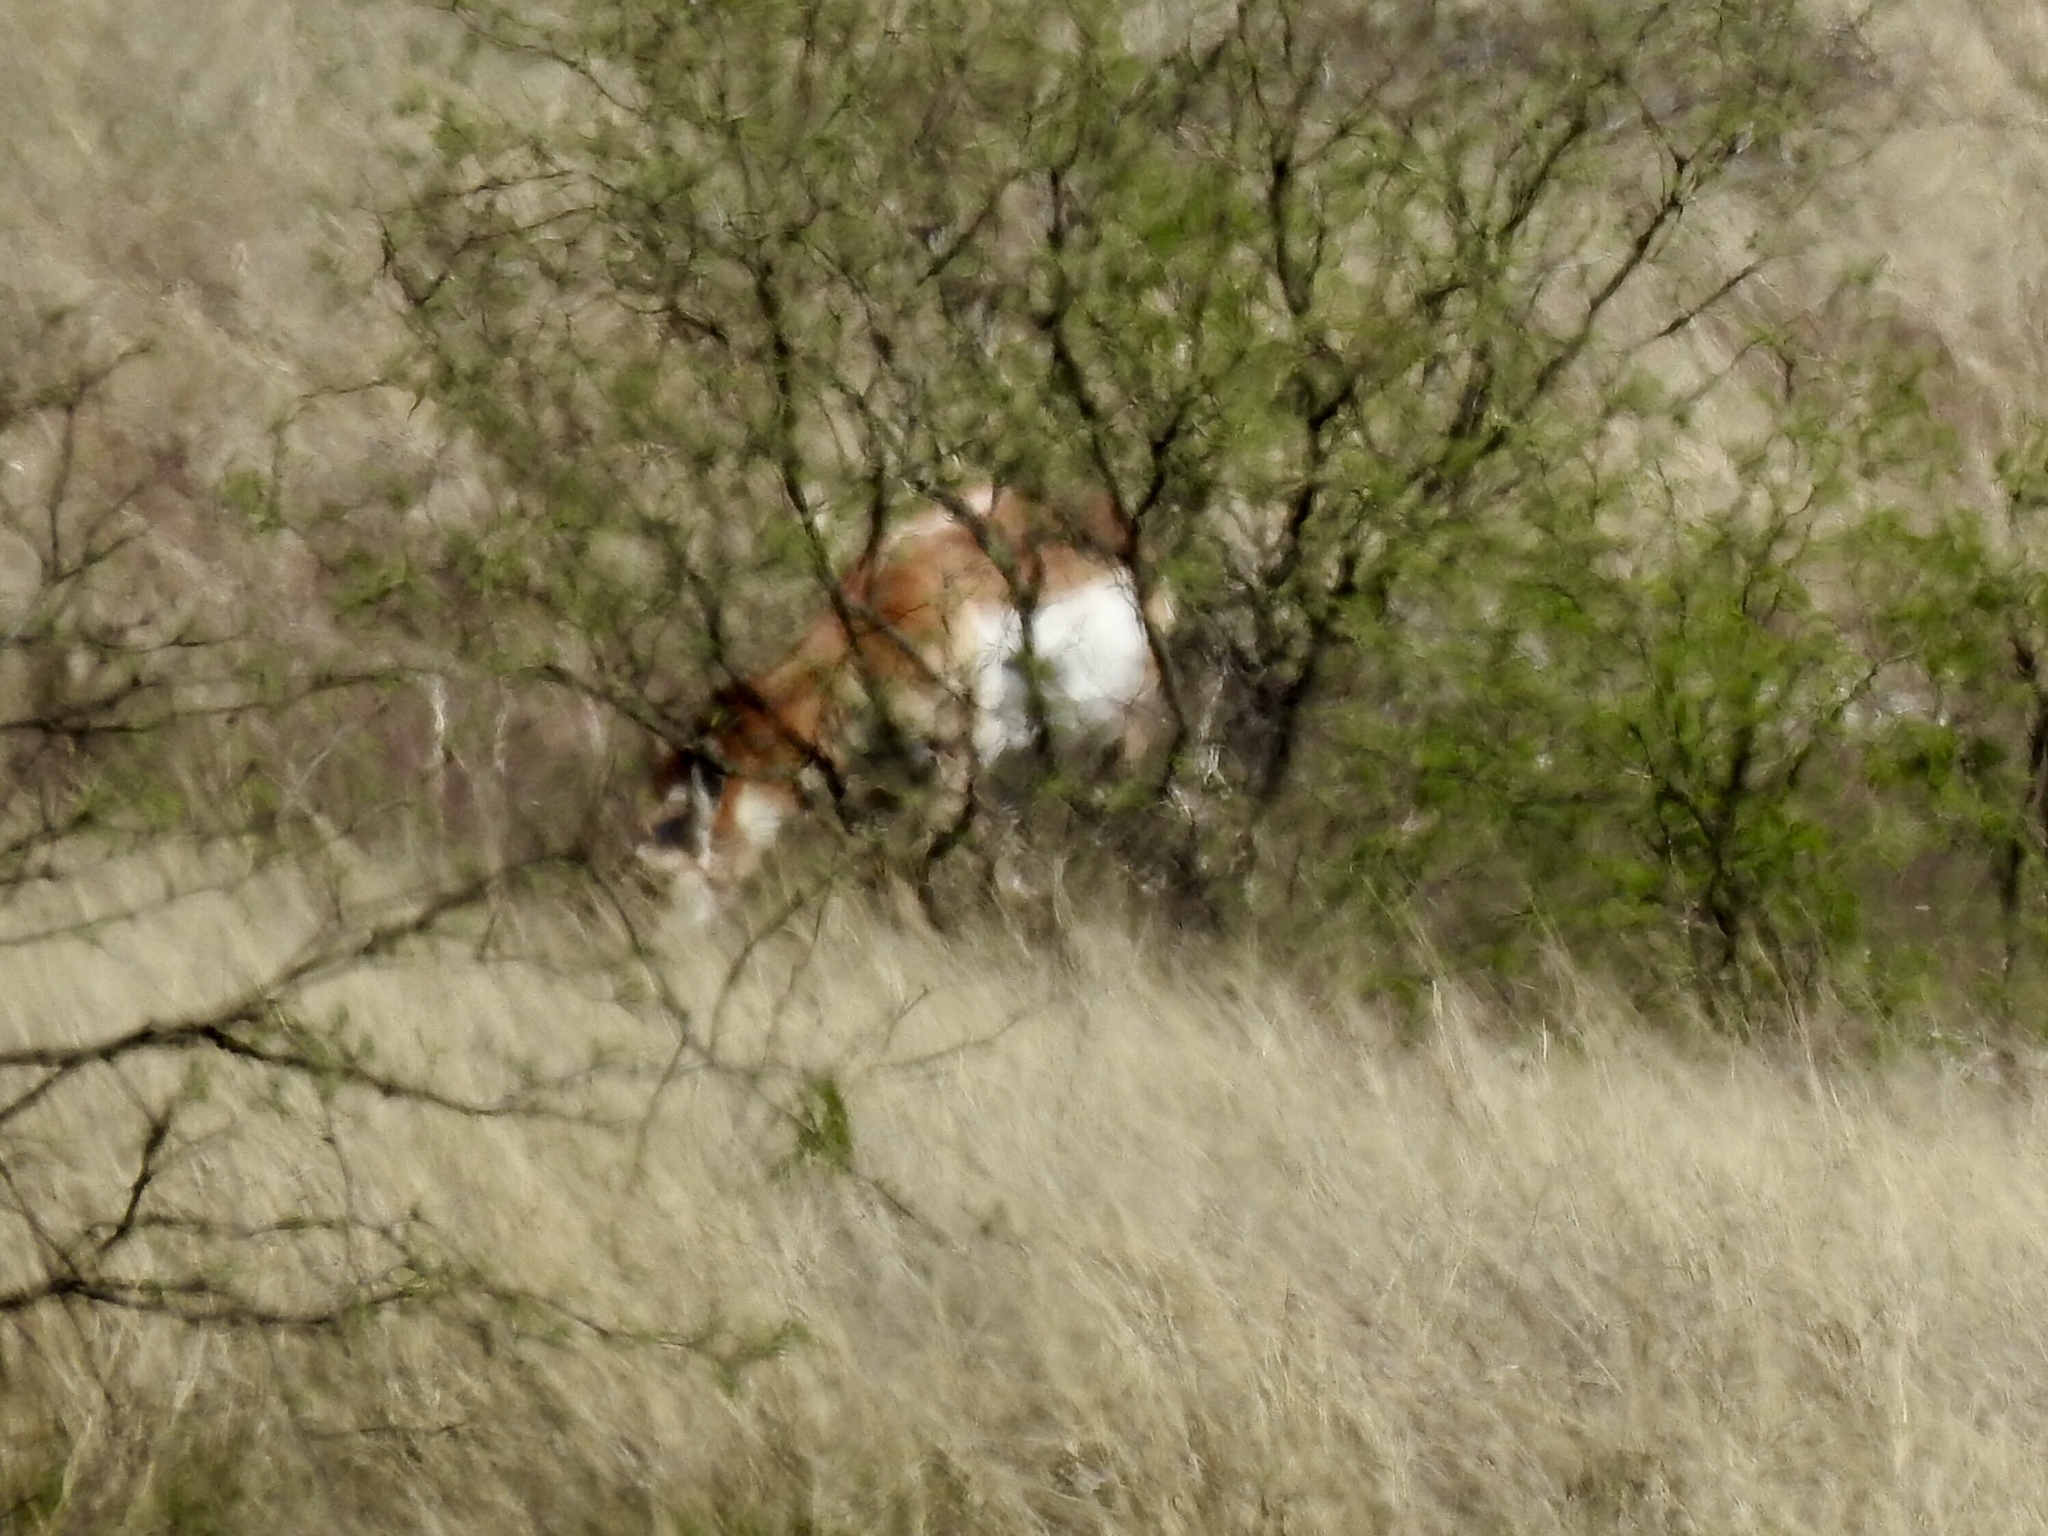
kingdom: Animalia
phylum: Chordata
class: Mammalia
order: Artiodactyla
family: Antilocapridae
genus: Antilocapra
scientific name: Antilocapra americana
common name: Pronghorn
